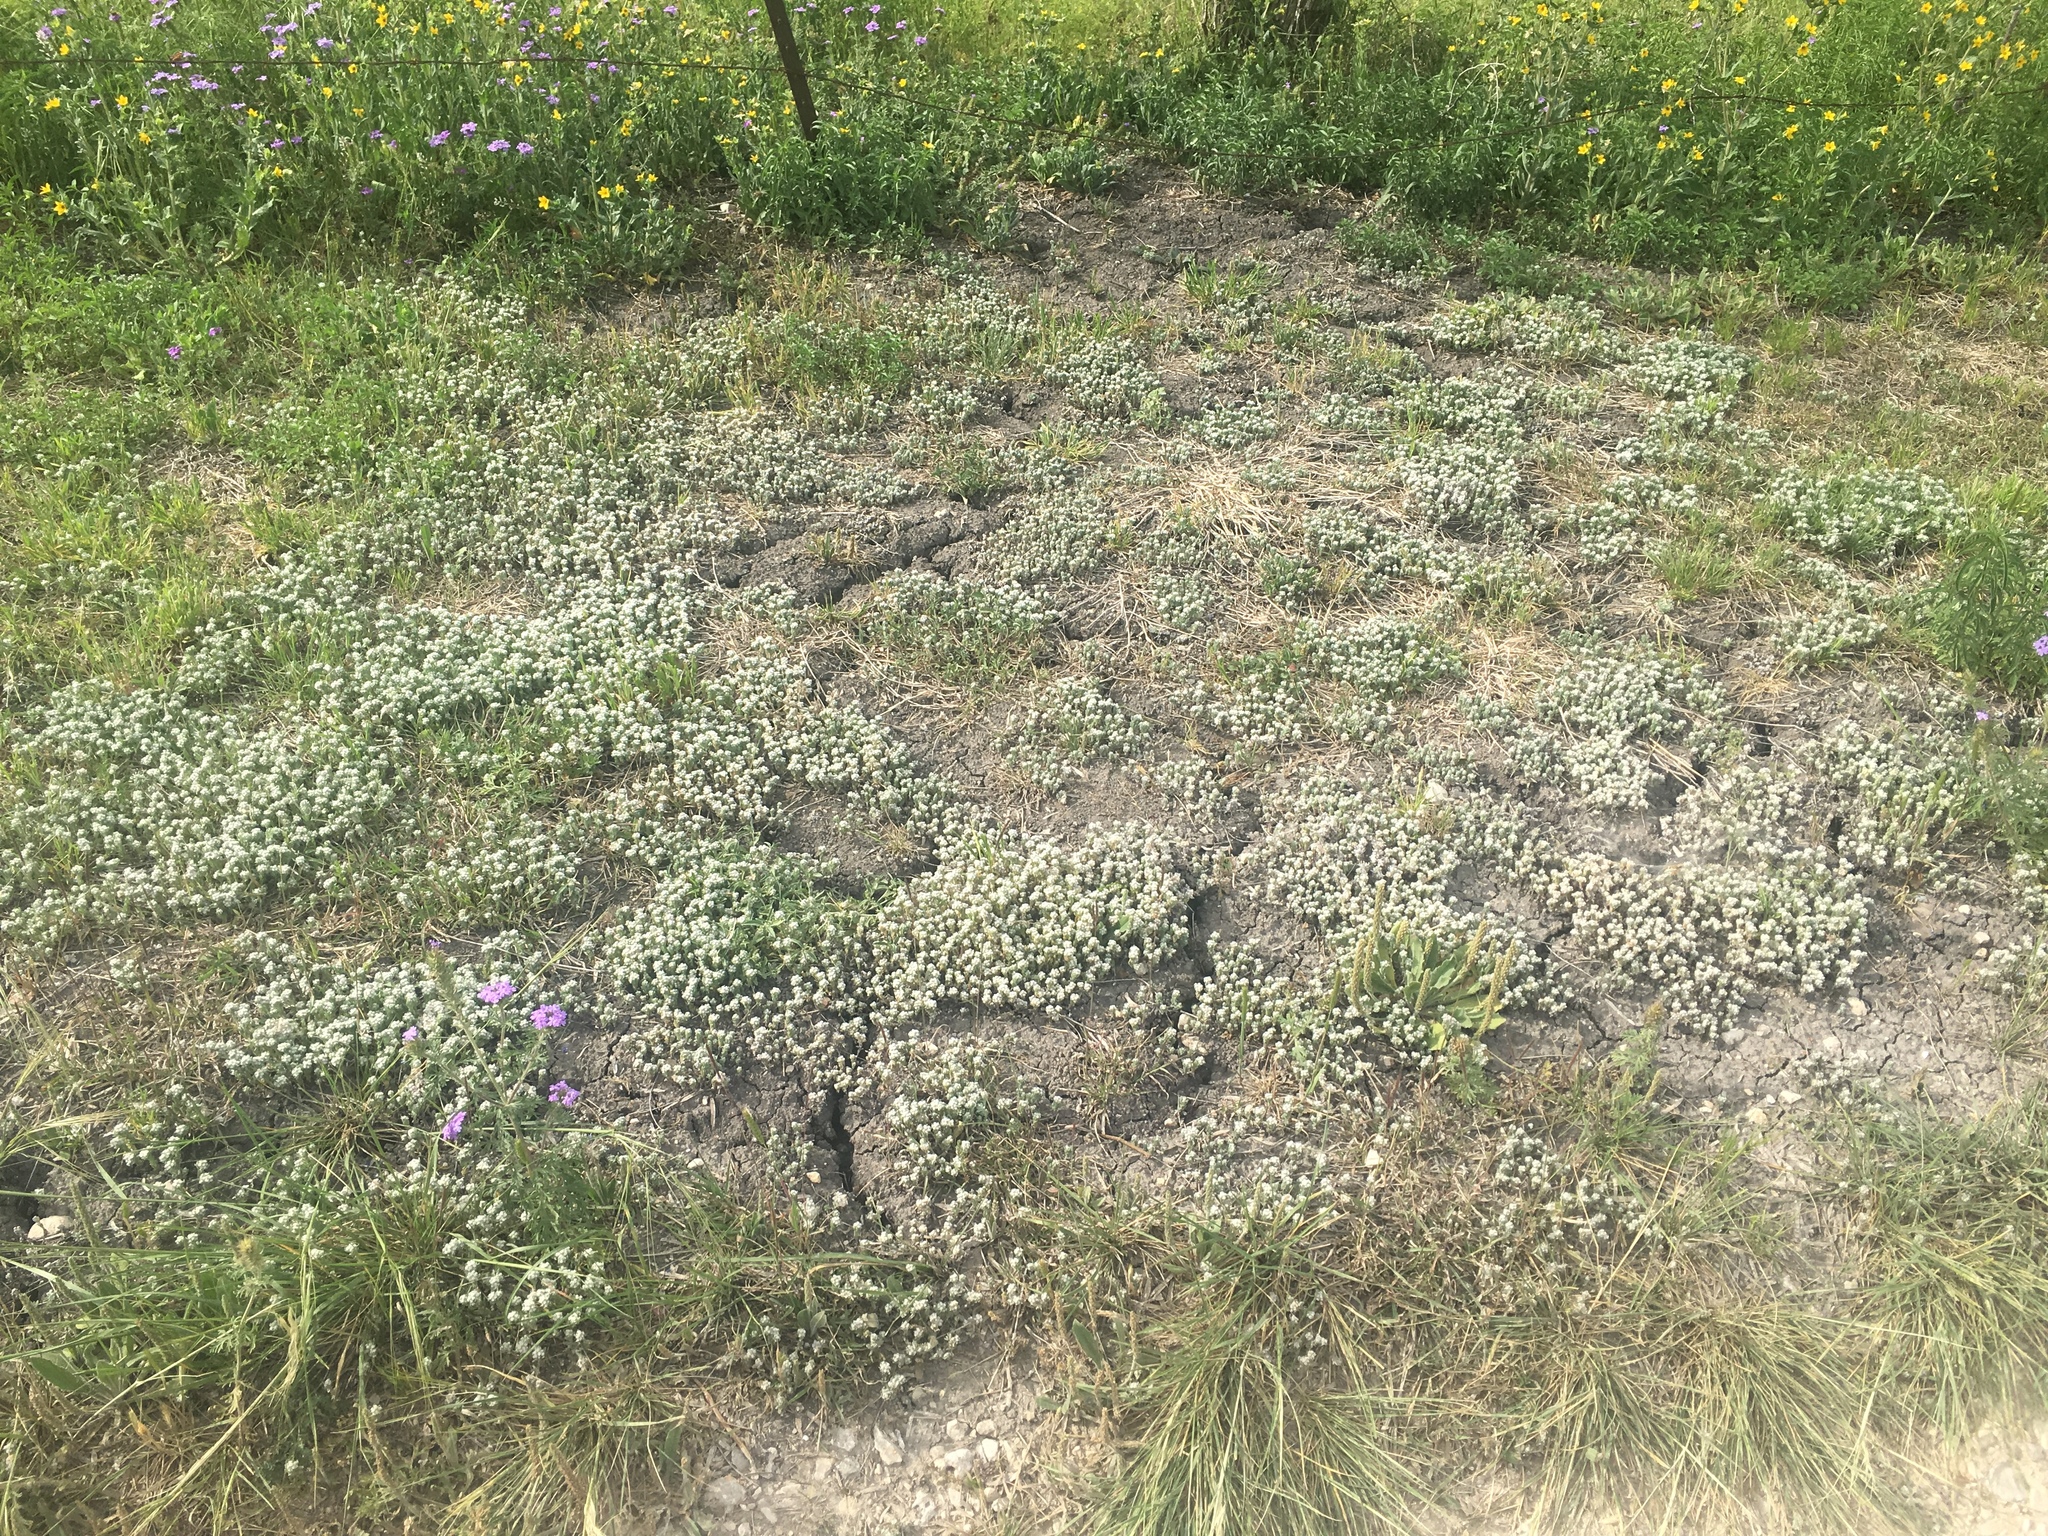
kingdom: Plantae
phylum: Tracheophyta
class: Magnoliopsida
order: Asterales
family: Asteraceae
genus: Diaperia
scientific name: Diaperia verna
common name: Many-stem rabbit-tobacco
